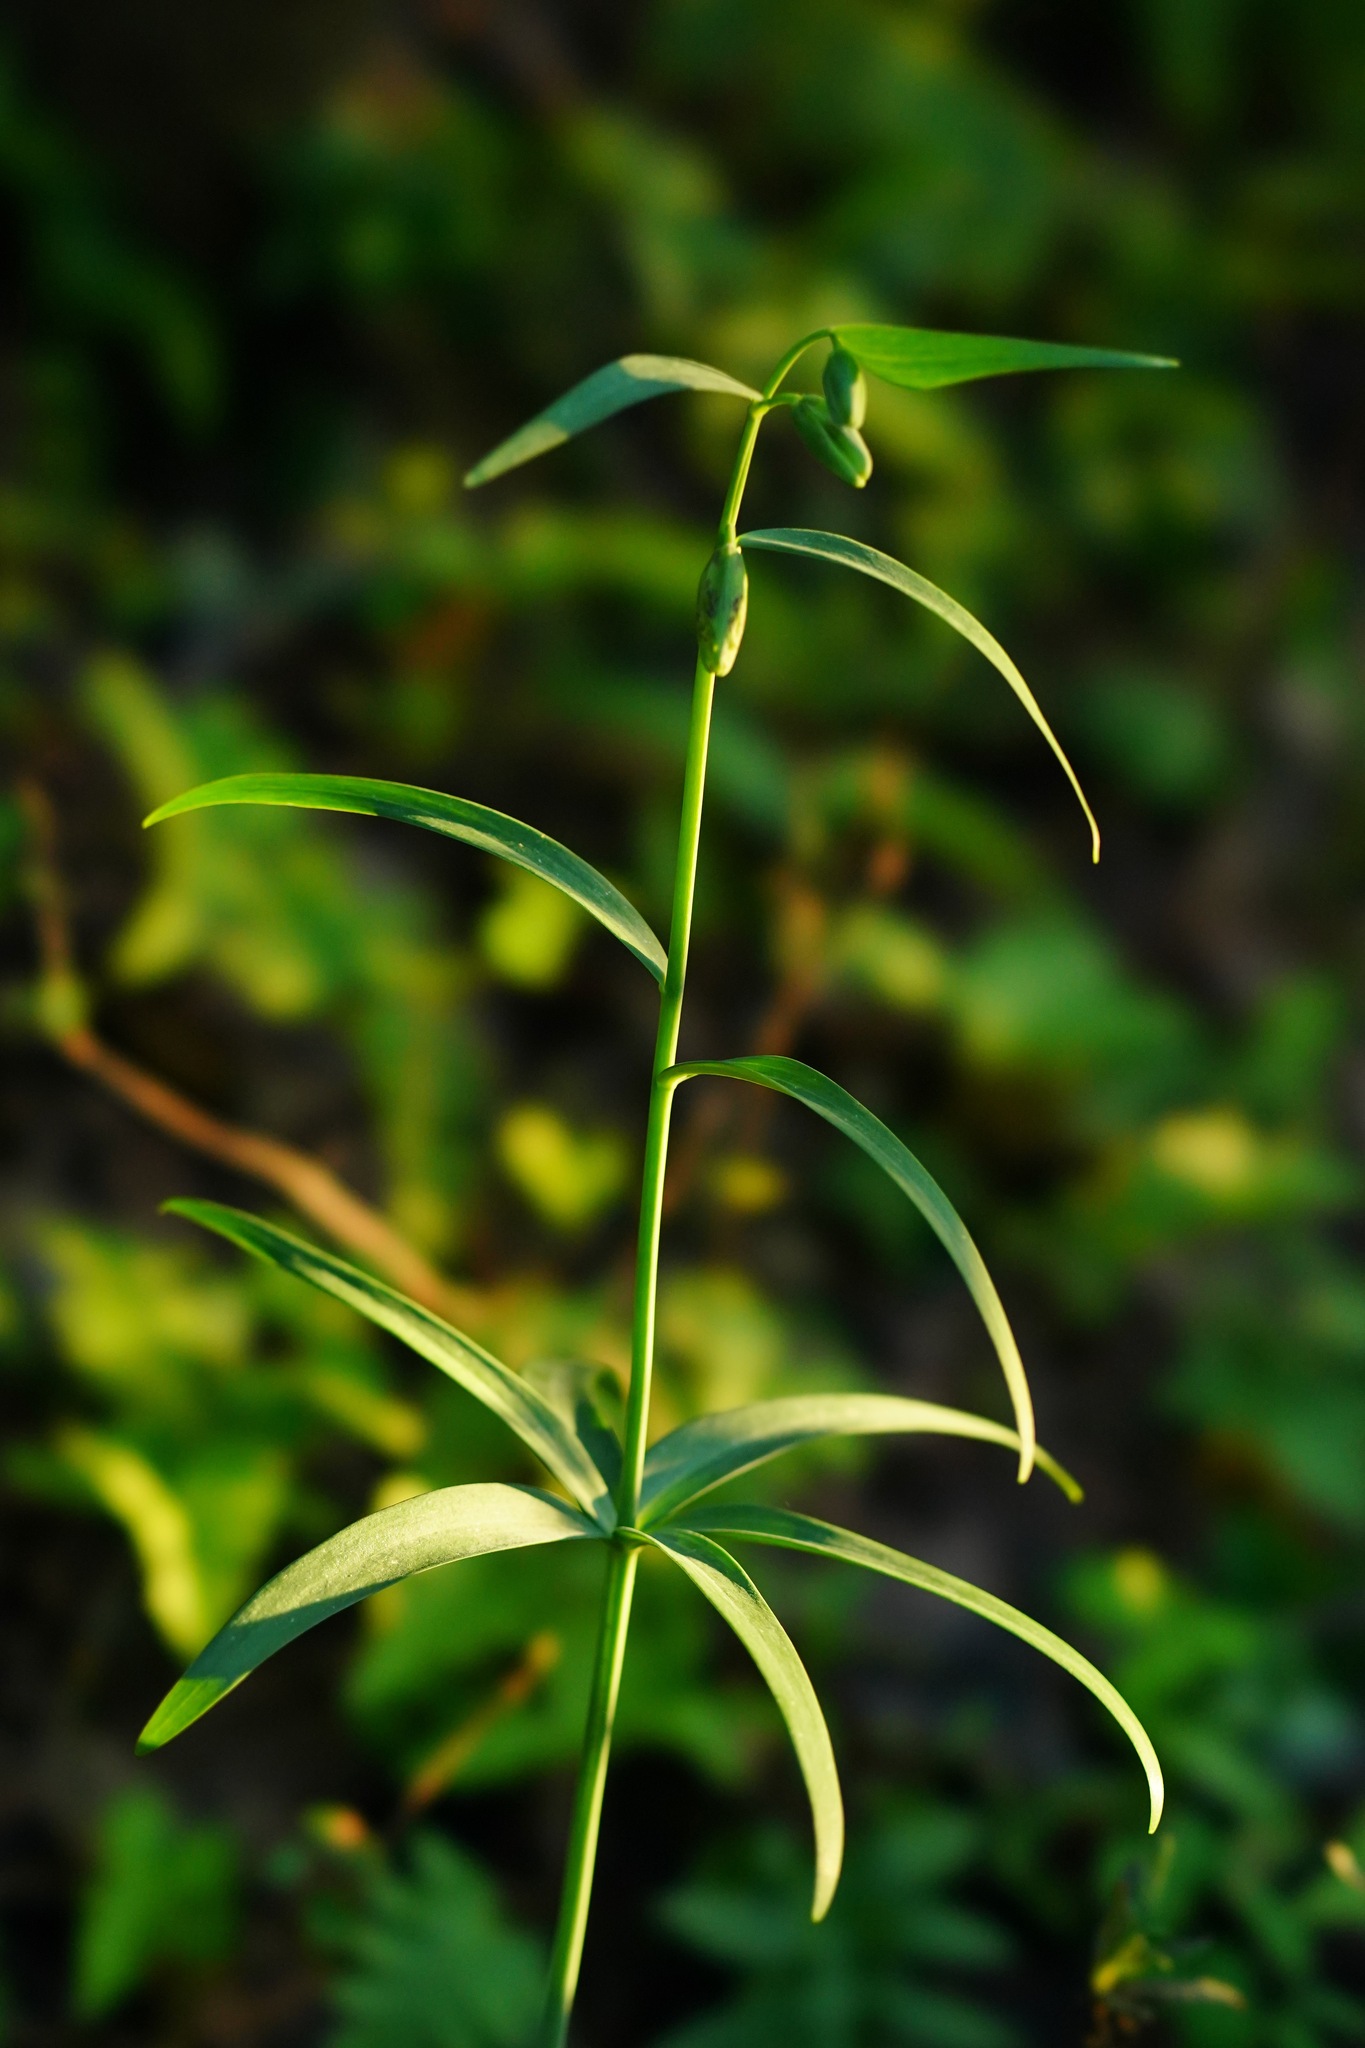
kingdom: Plantae
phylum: Tracheophyta
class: Liliopsida
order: Liliales
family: Liliaceae
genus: Fritillaria
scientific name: Fritillaria affinis
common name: Ojai fritillary
